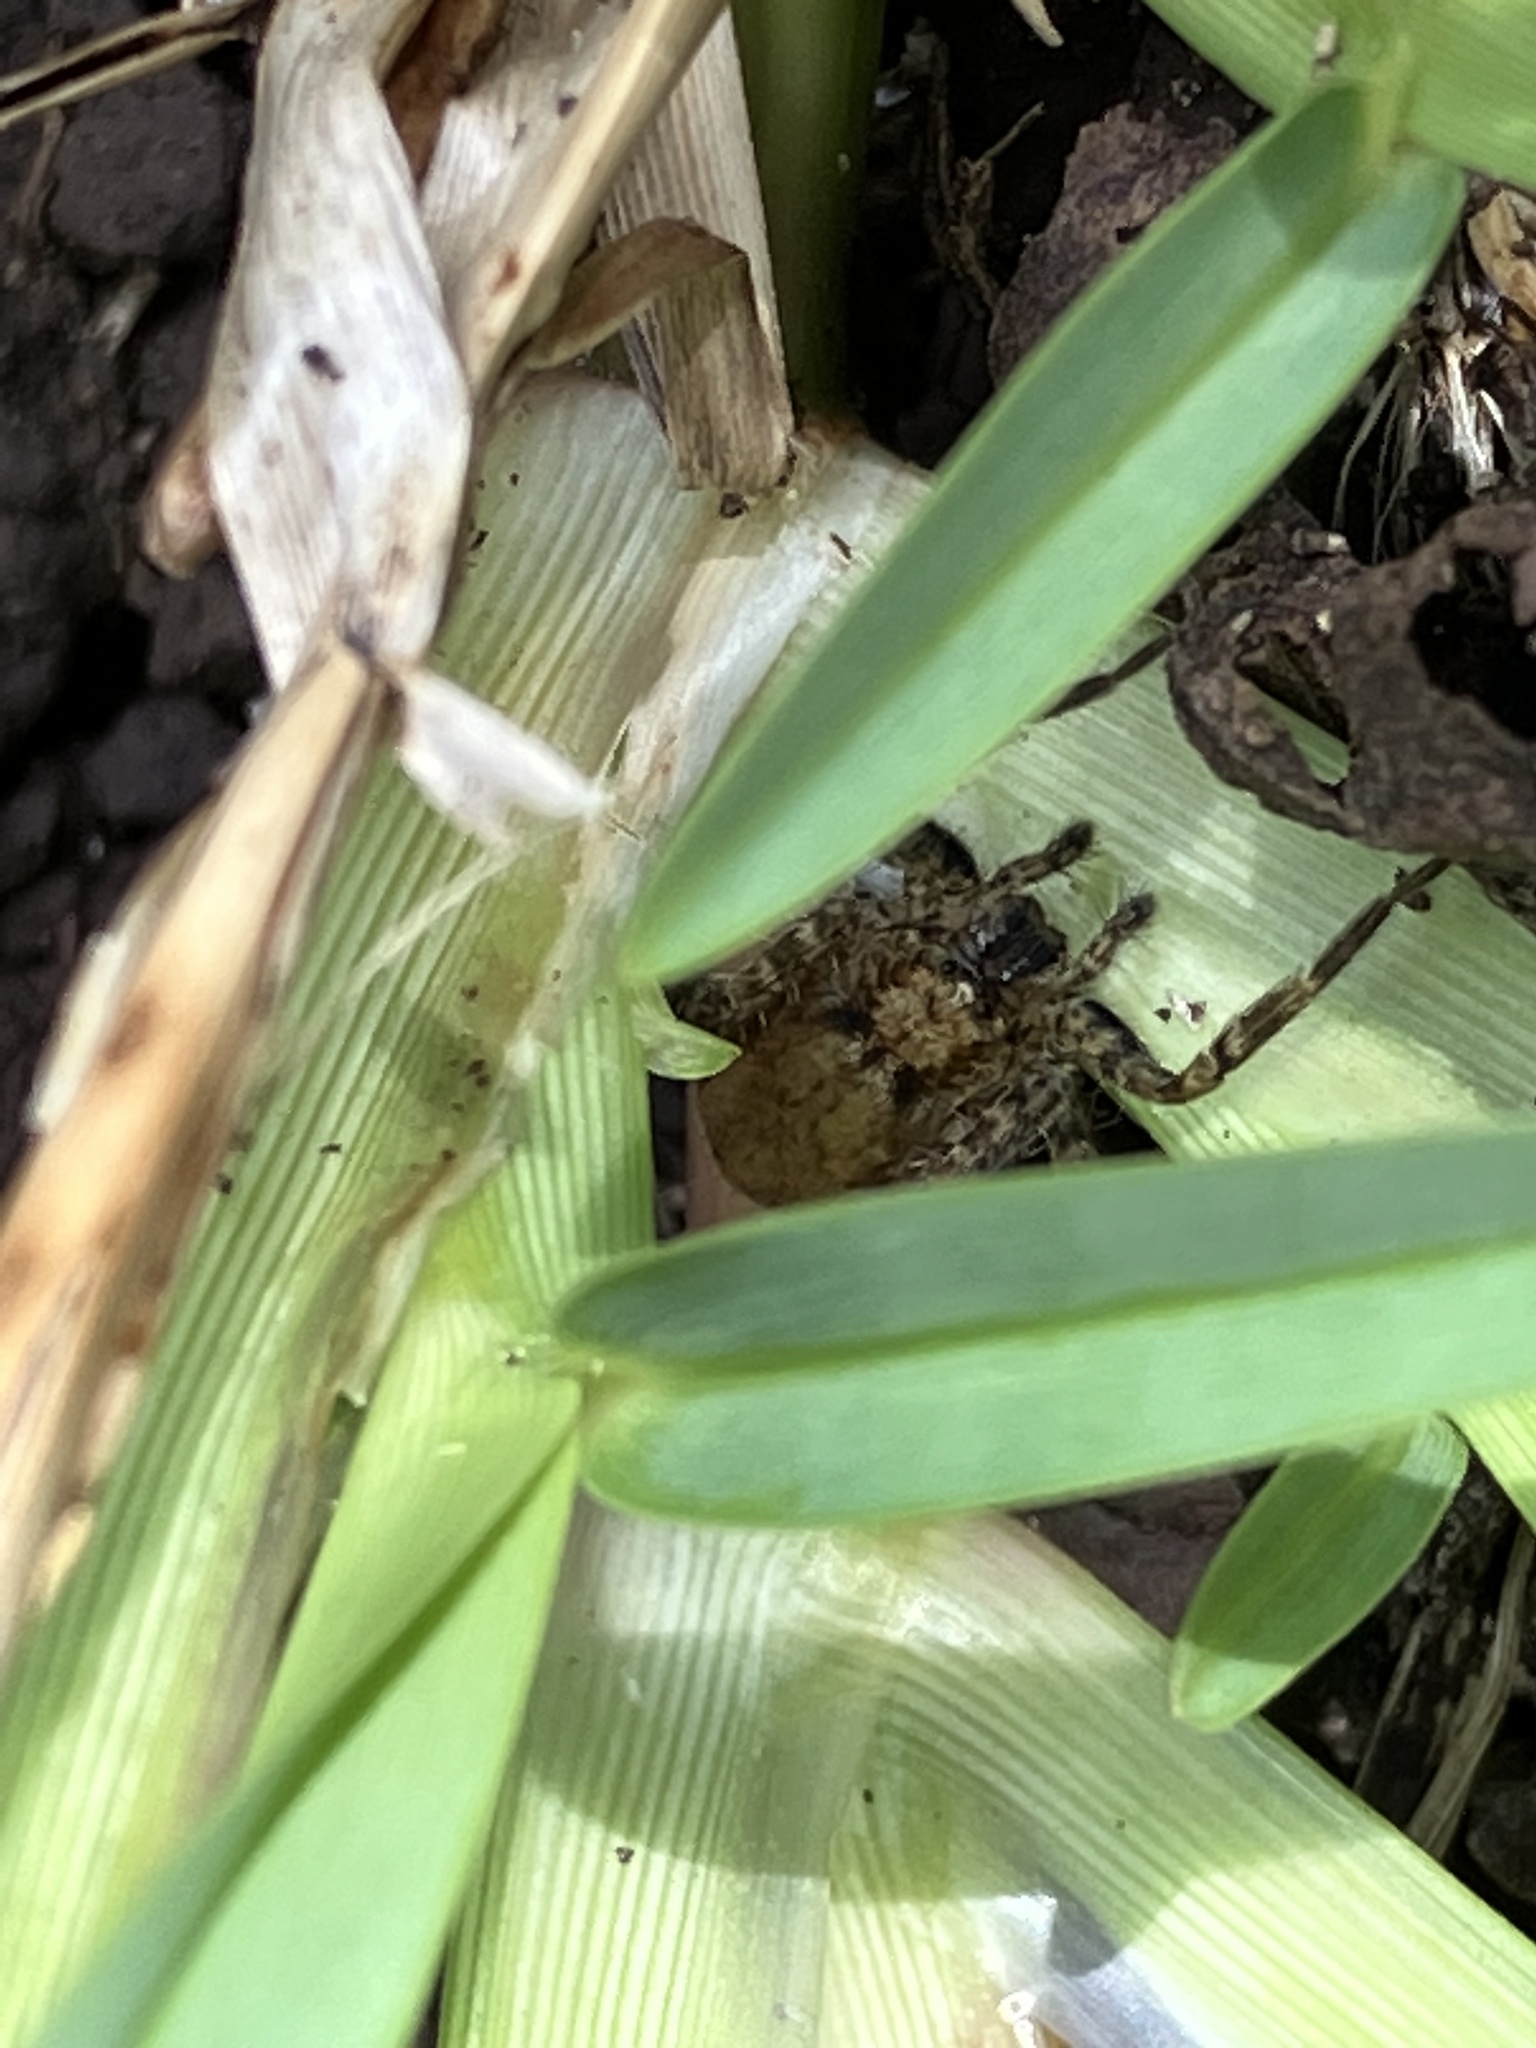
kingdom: Animalia
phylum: Arthropoda
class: Arachnida
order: Araneae
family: Selenopidae
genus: Anyphops
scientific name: Anyphops stauntoni
